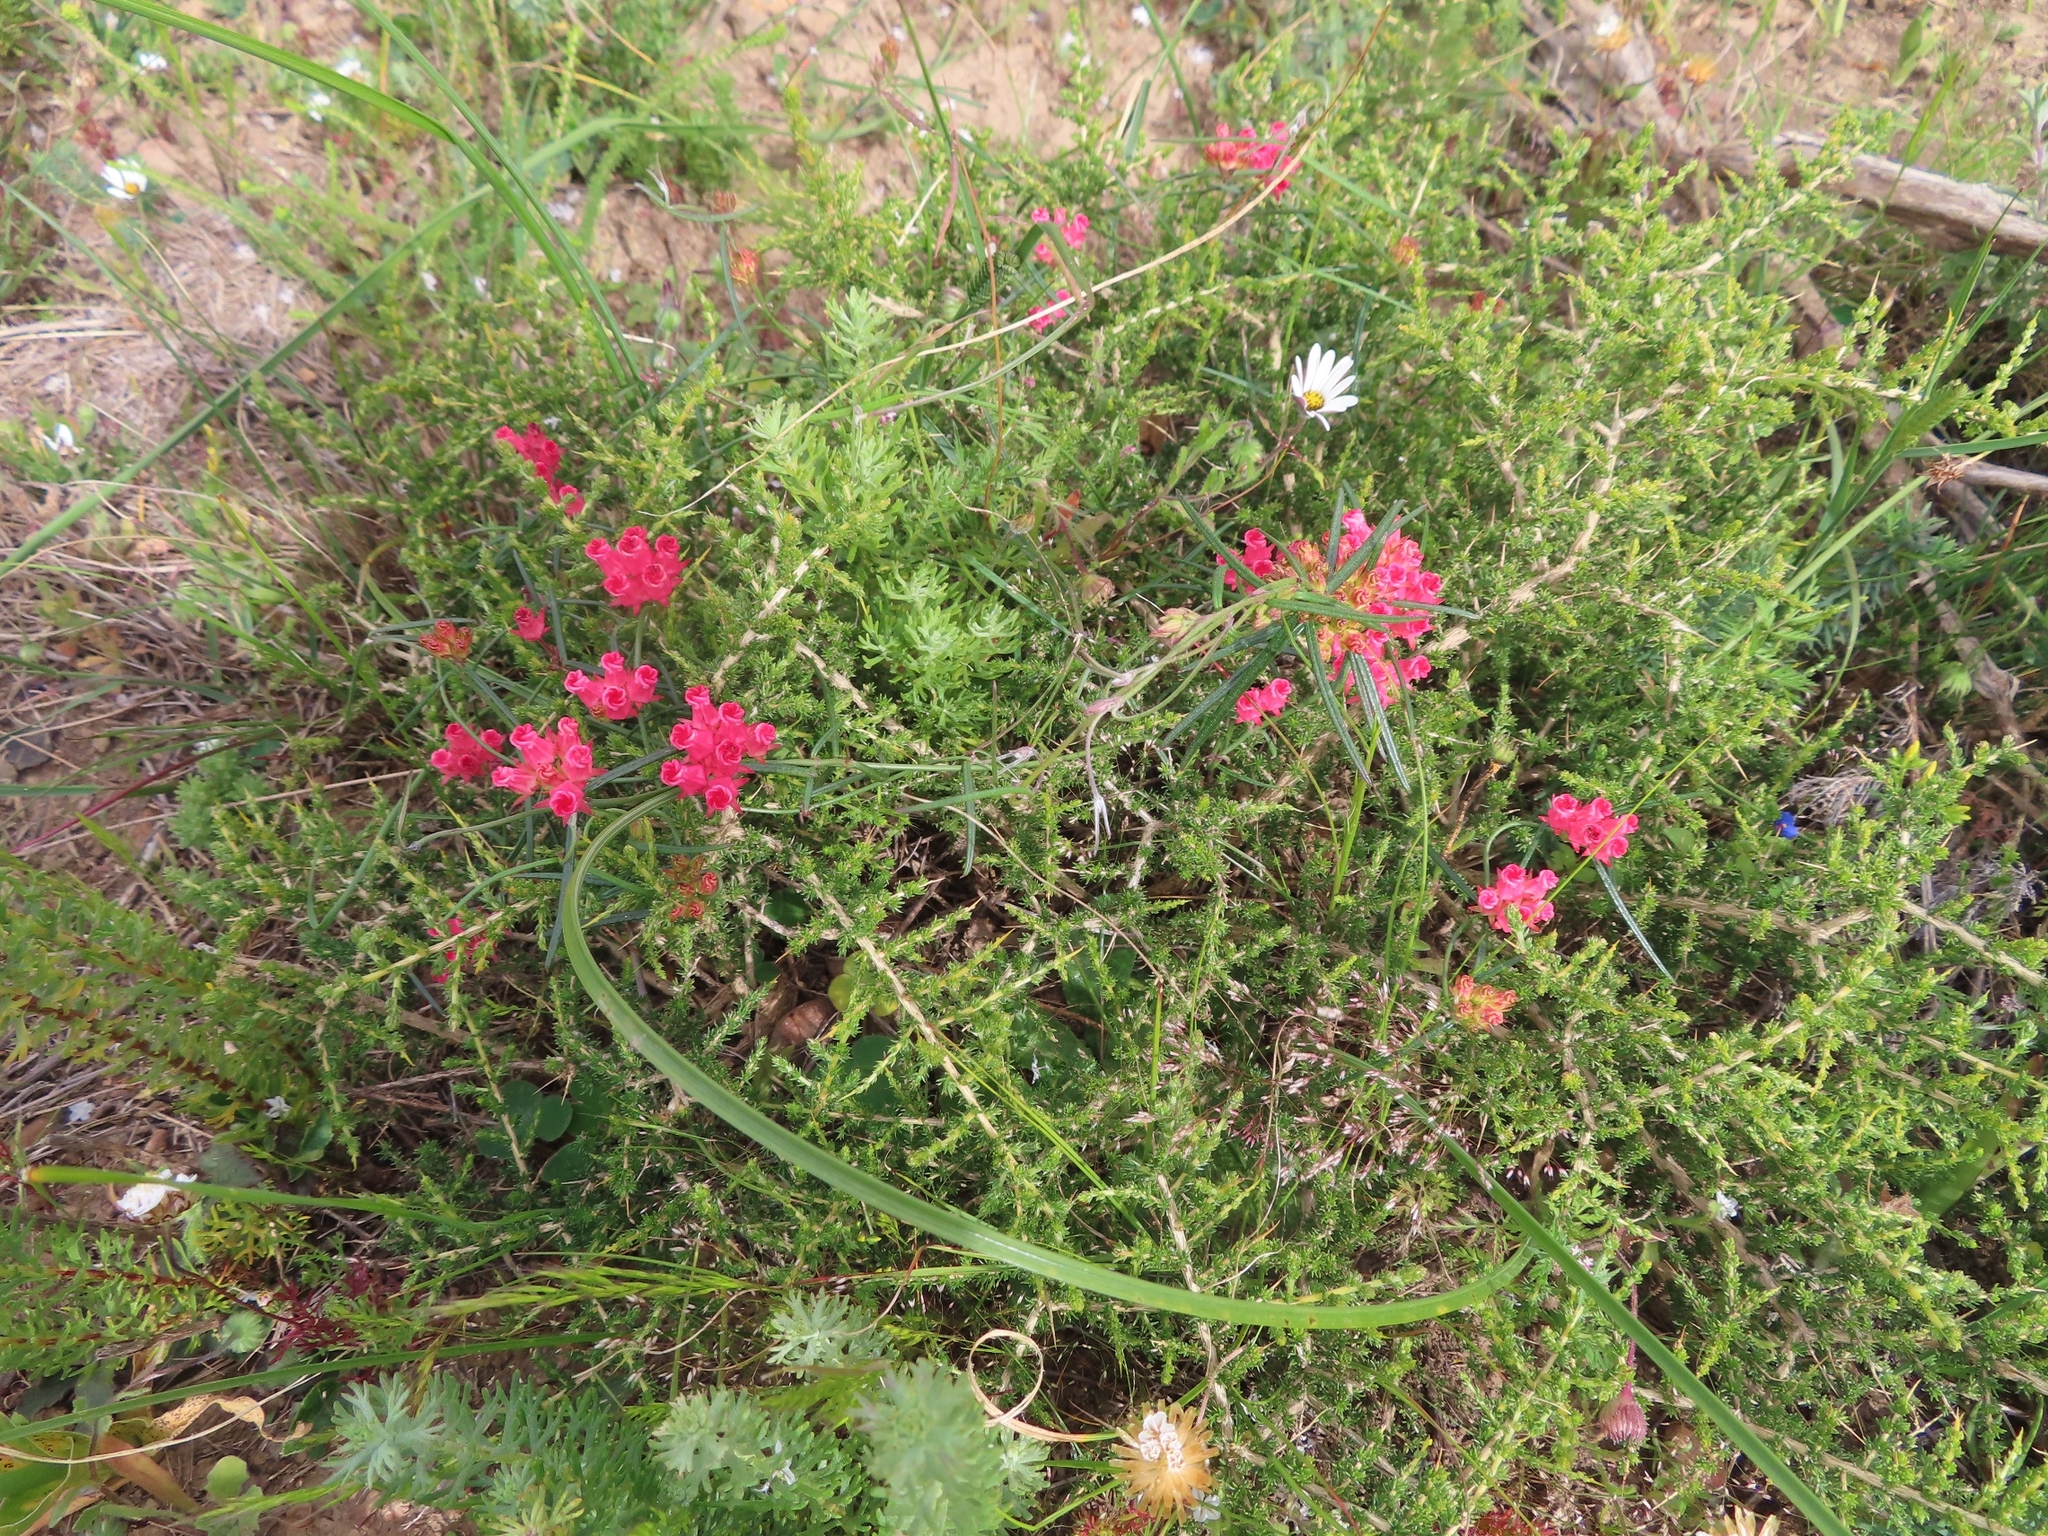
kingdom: Plantae
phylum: Tracheophyta
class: Magnoliopsida
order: Gentianales
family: Apocynaceae
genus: Microloma
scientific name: Microloma tenuifolium
